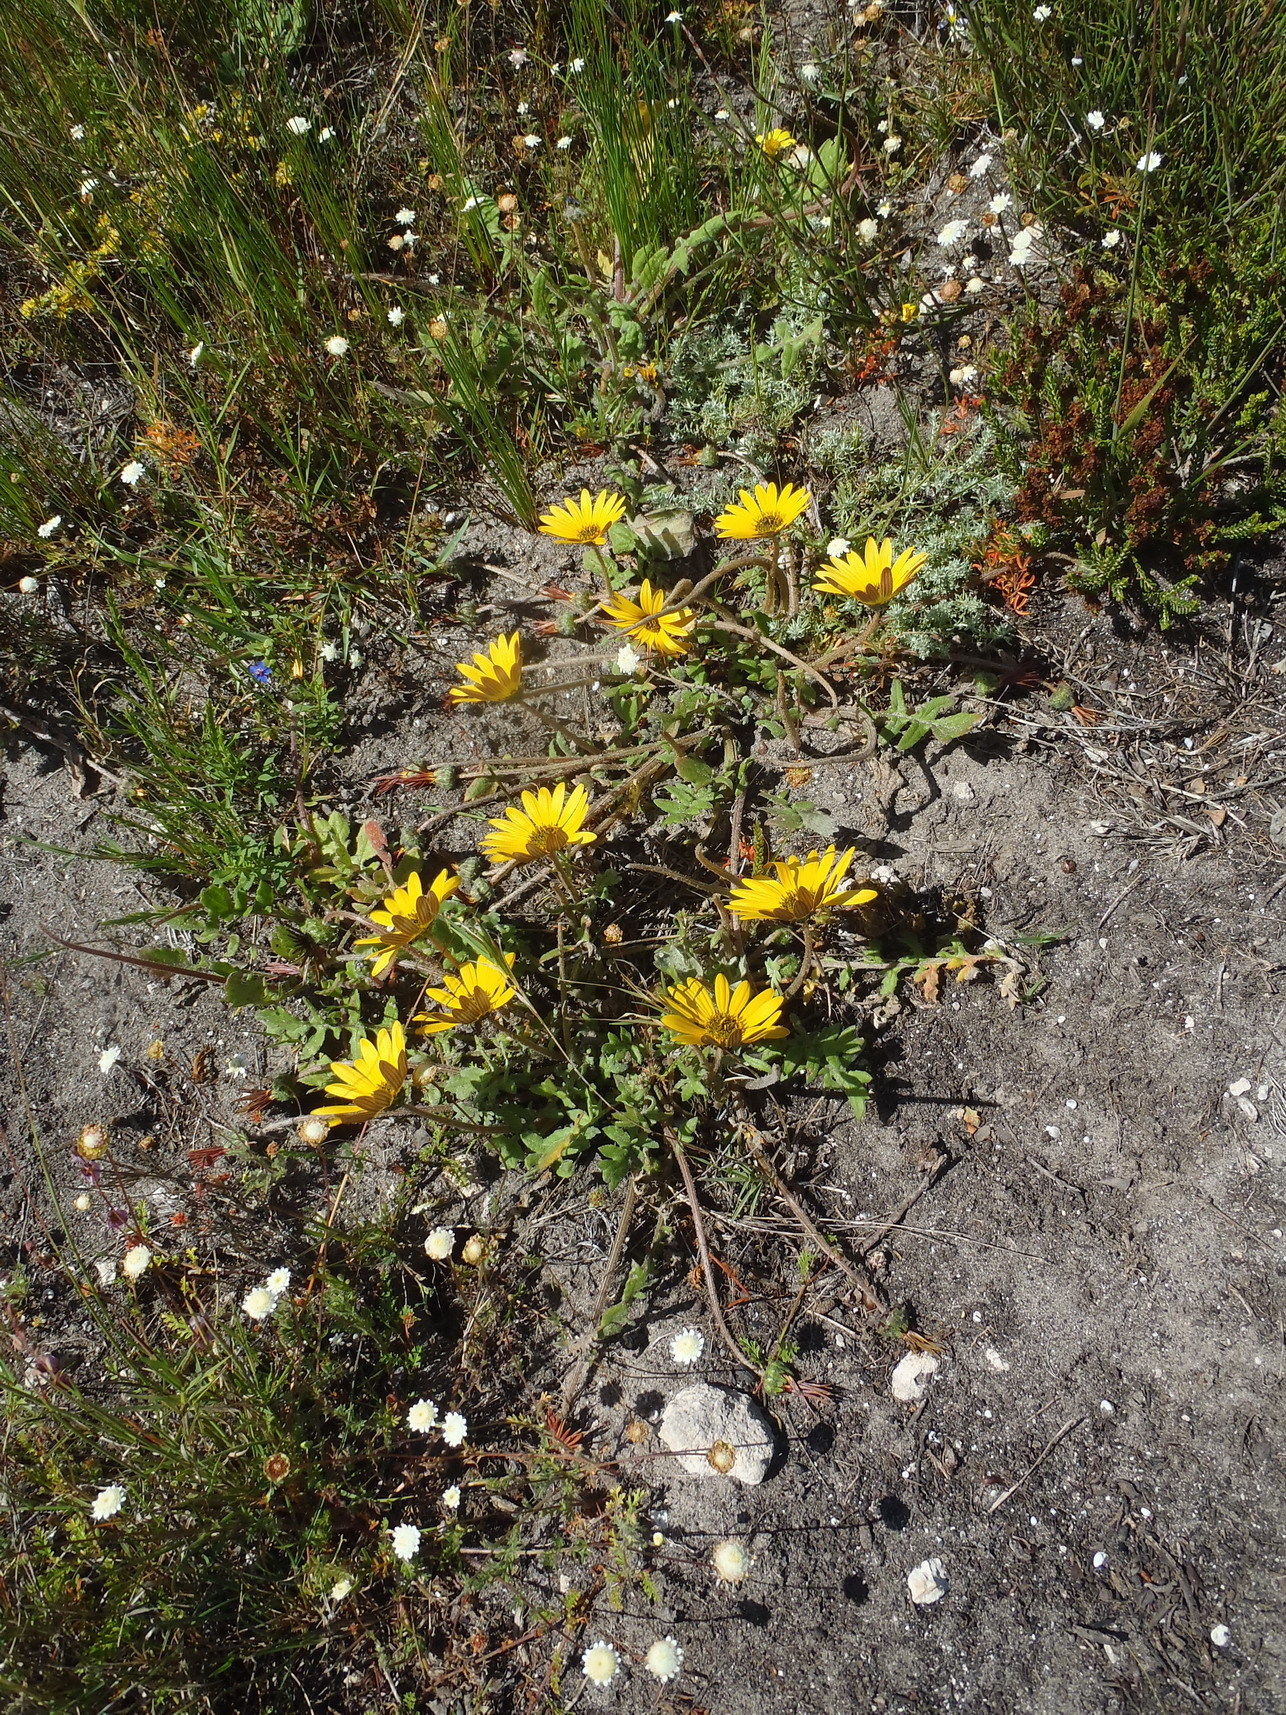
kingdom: Plantae
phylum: Tracheophyta
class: Magnoliopsida
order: Asterales
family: Asteraceae
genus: Arctotheca
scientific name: Arctotheca calendula
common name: Capeweed
